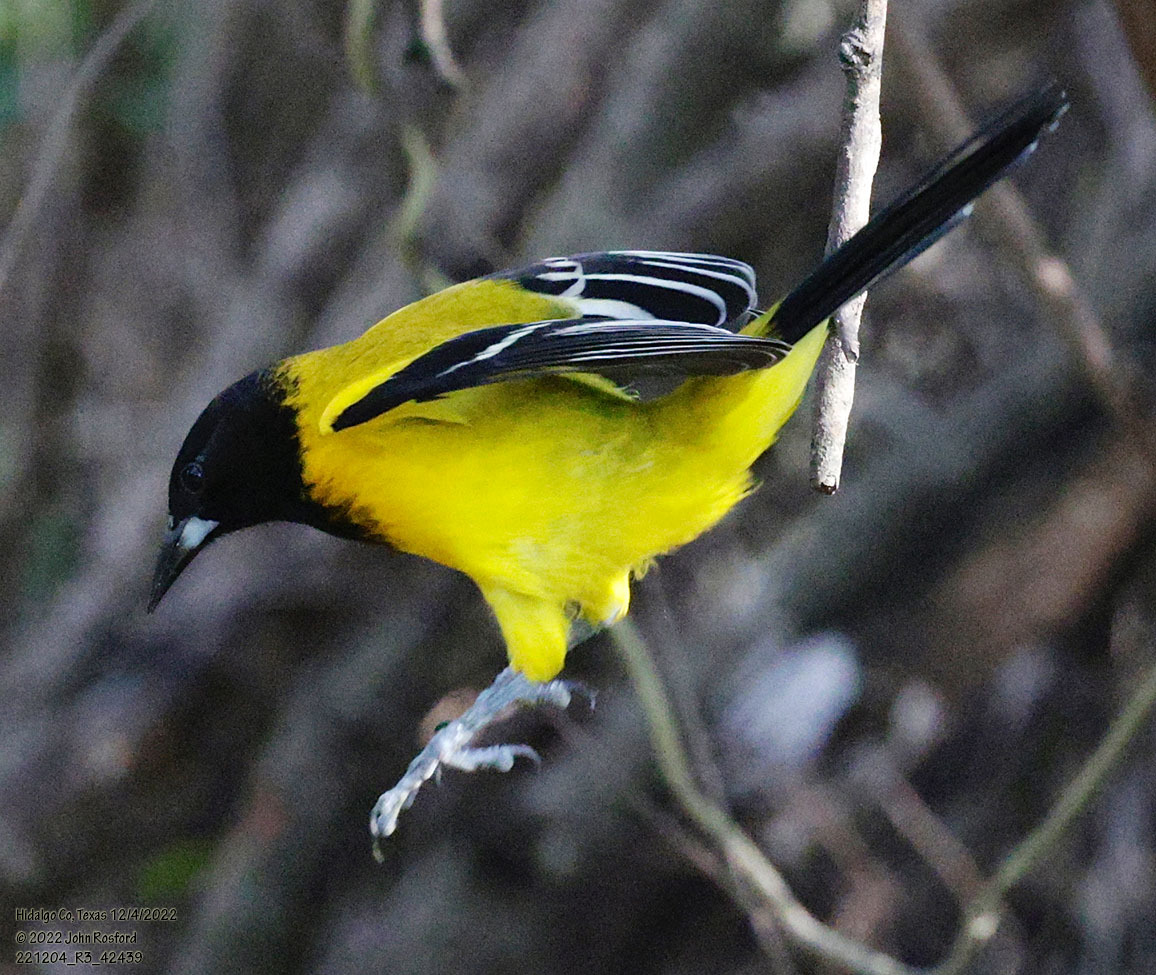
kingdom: Animalia
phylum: Chordata
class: Aves
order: Passeriformes
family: Icteridae
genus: Icterus
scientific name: Icterus graduacauda
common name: Audubon's oriole
